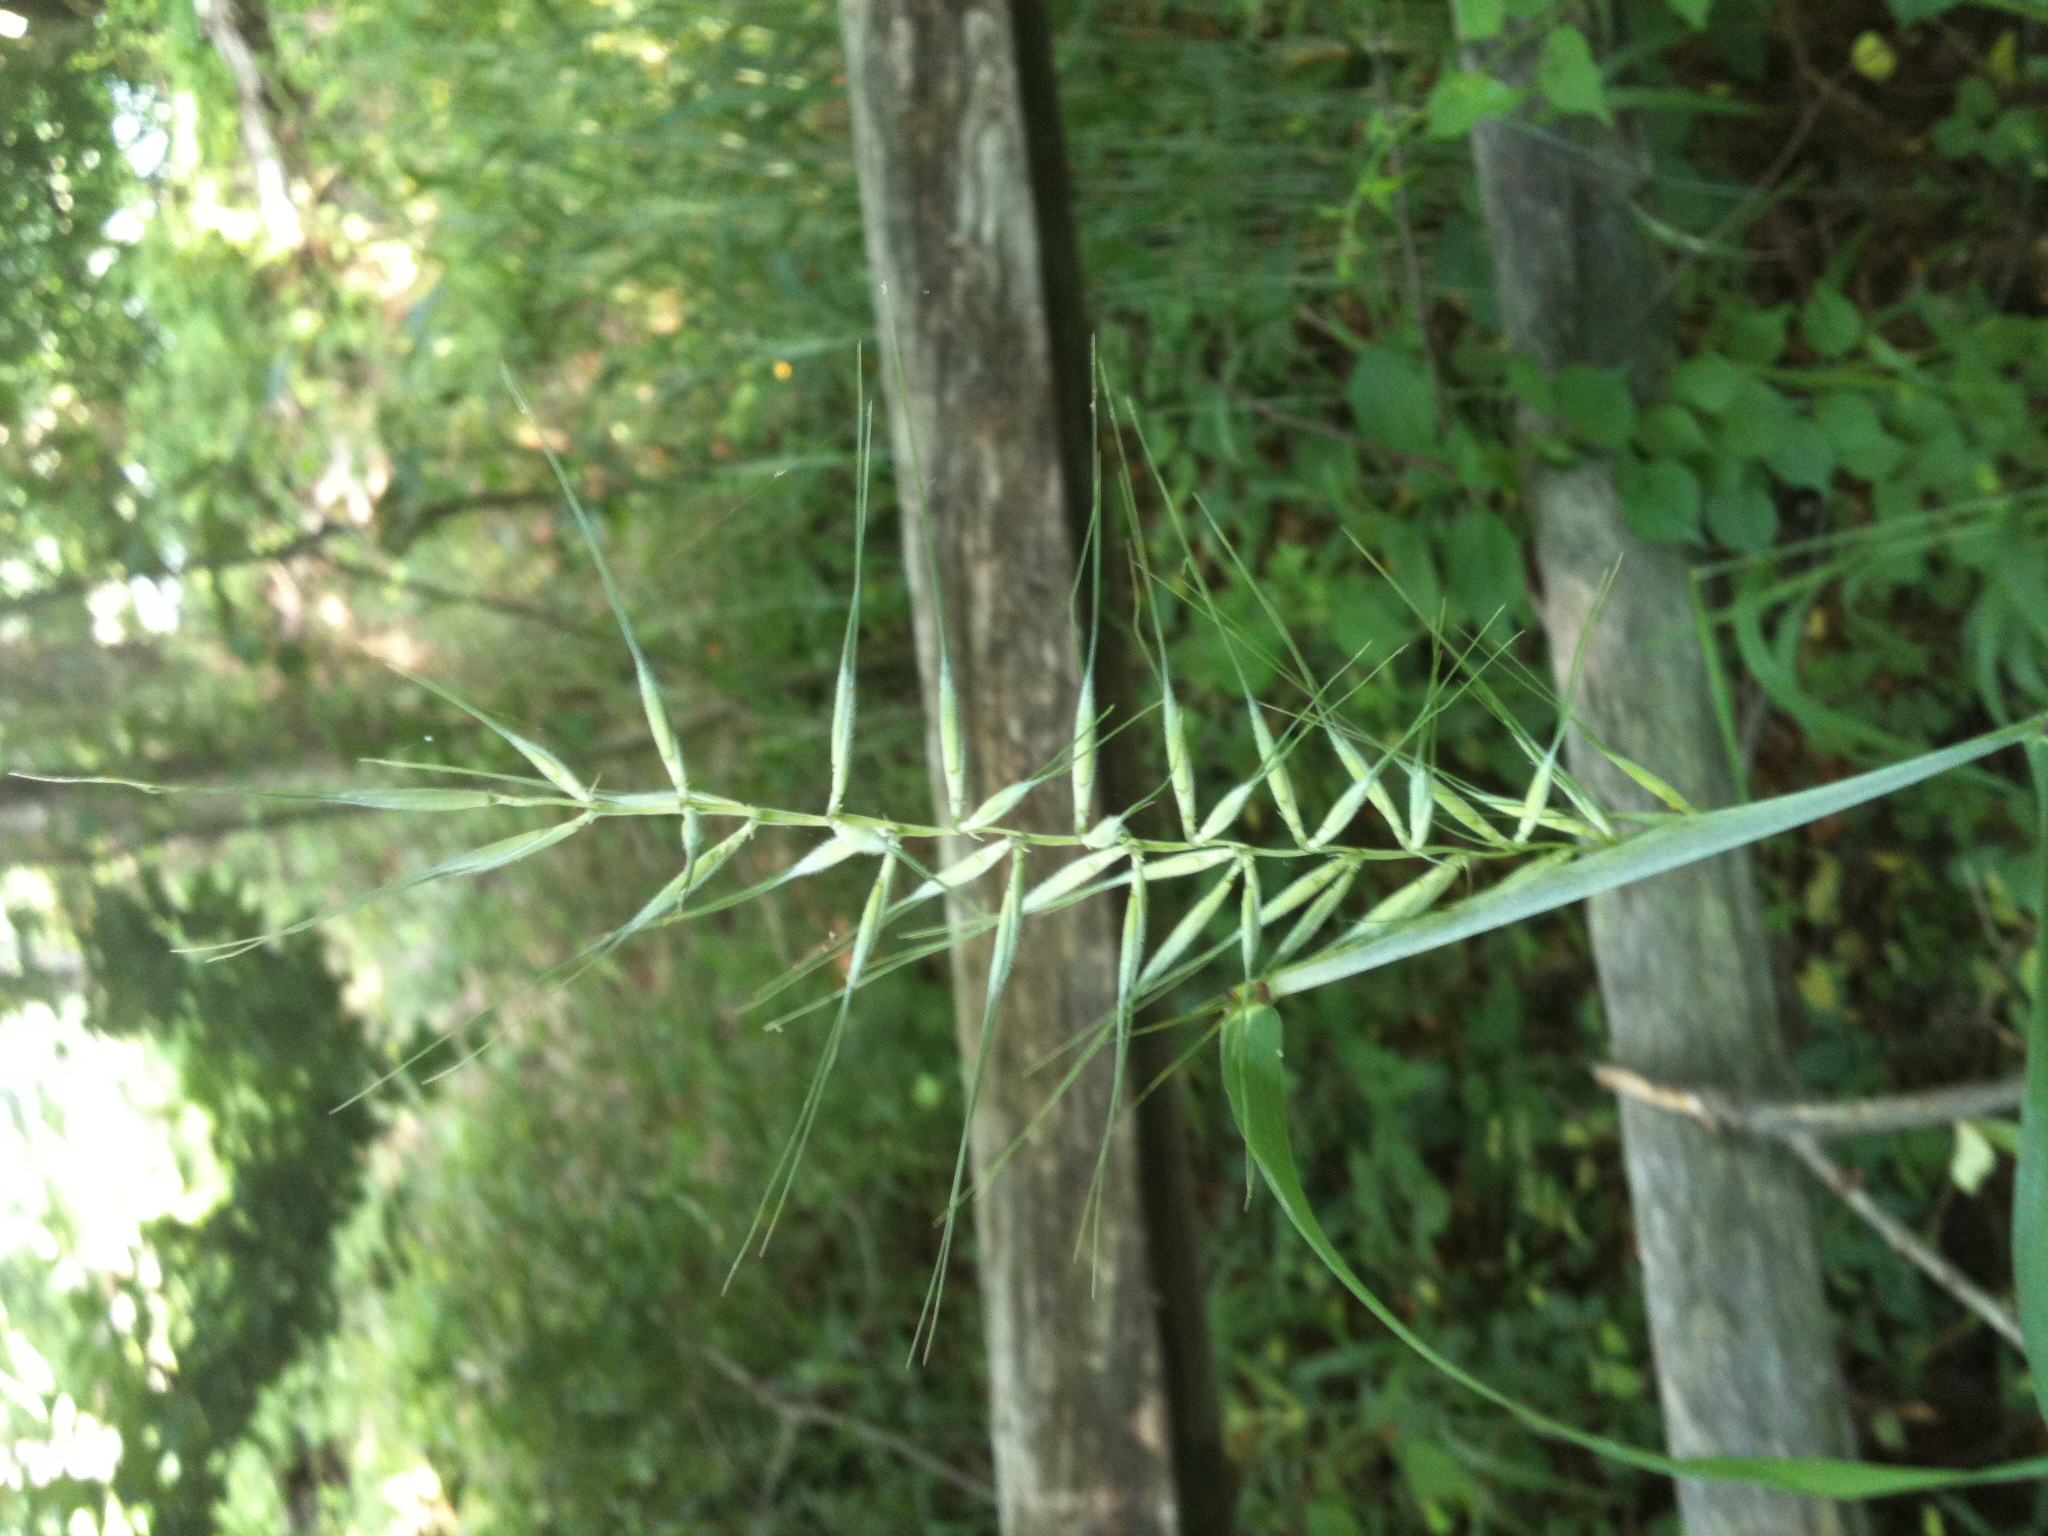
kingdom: Plantae
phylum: Tracheophyta
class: Liliopsida
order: Poales
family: Poaceae
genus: Elymus
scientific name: Elymus hystrix
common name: Bottlebrush grass
